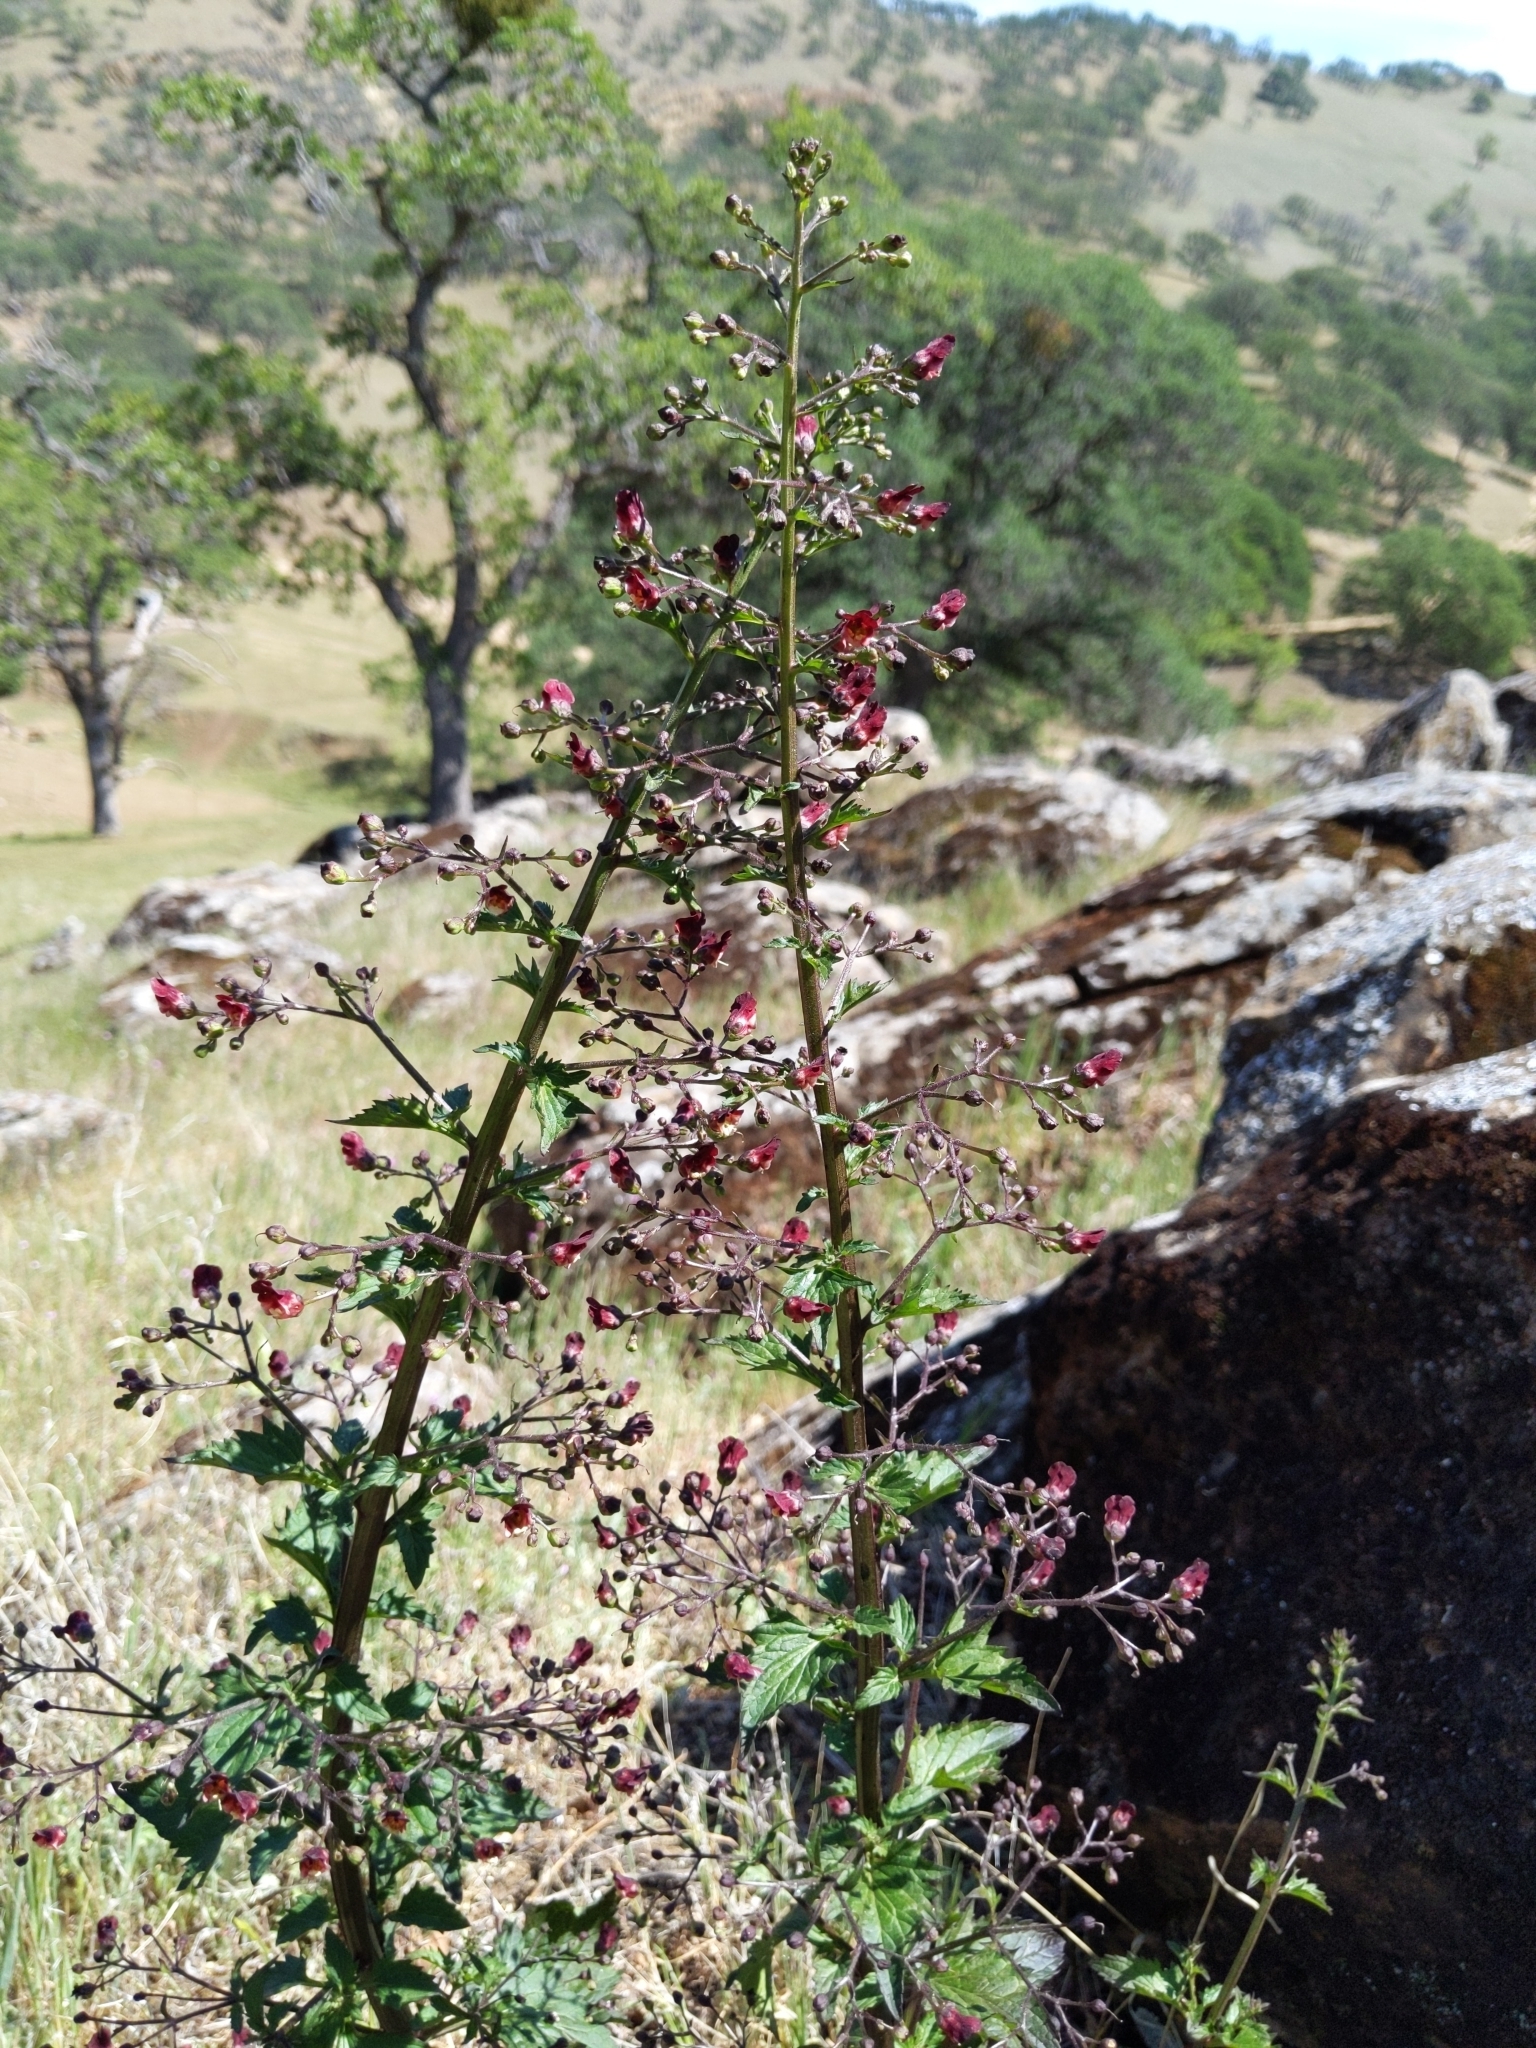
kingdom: Plantae
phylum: Tracheophyta
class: Magnoliopsida
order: Lamiales
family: Scrophulariaceae
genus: Scrophularia
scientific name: Scrophularia californica
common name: California figwort
